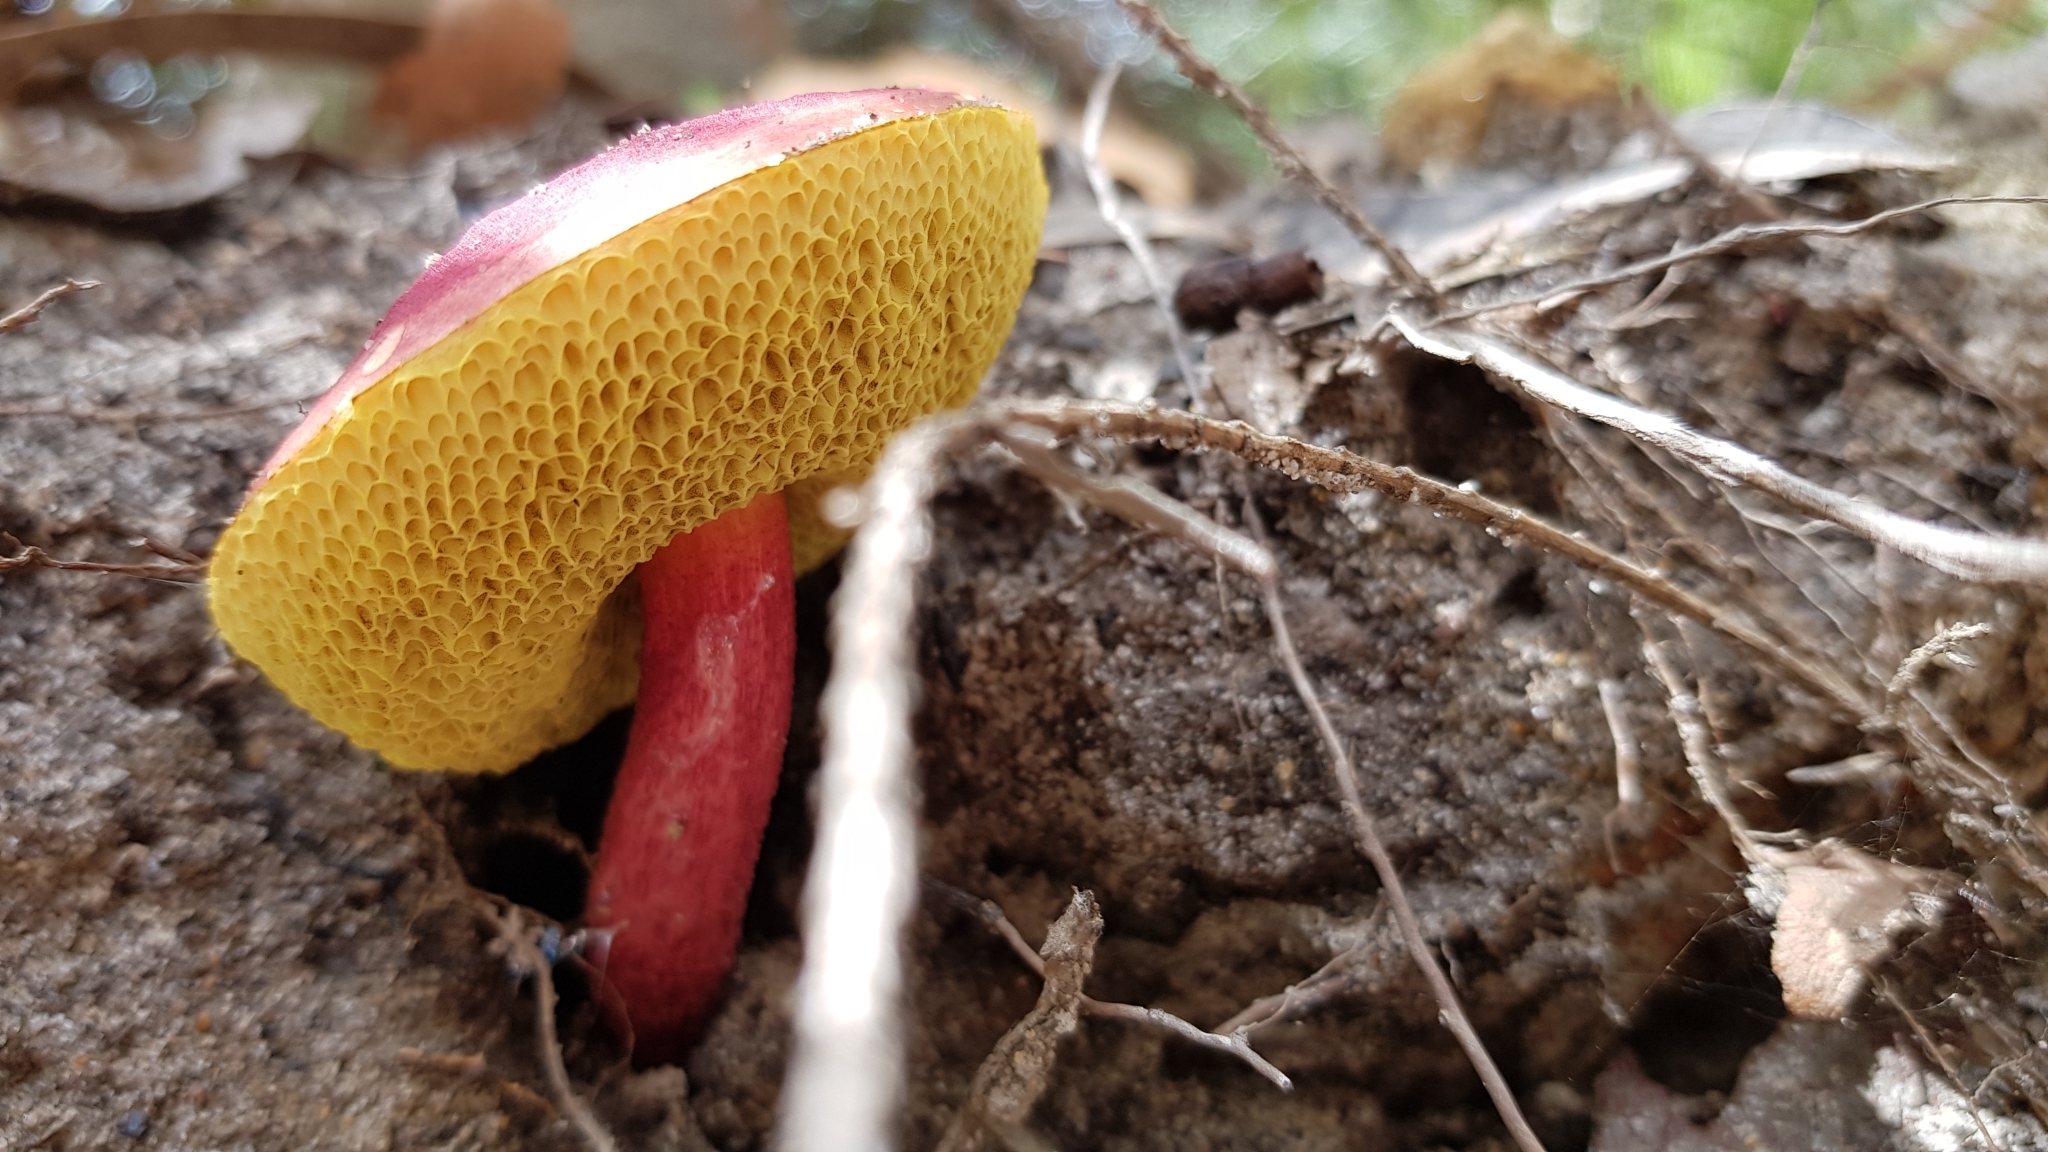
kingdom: Fungi
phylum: Basidiomycota
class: Agaricomycetes
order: Boletales
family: Boletaceae
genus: Boletellus
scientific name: Boletellus obscurecoccineus
